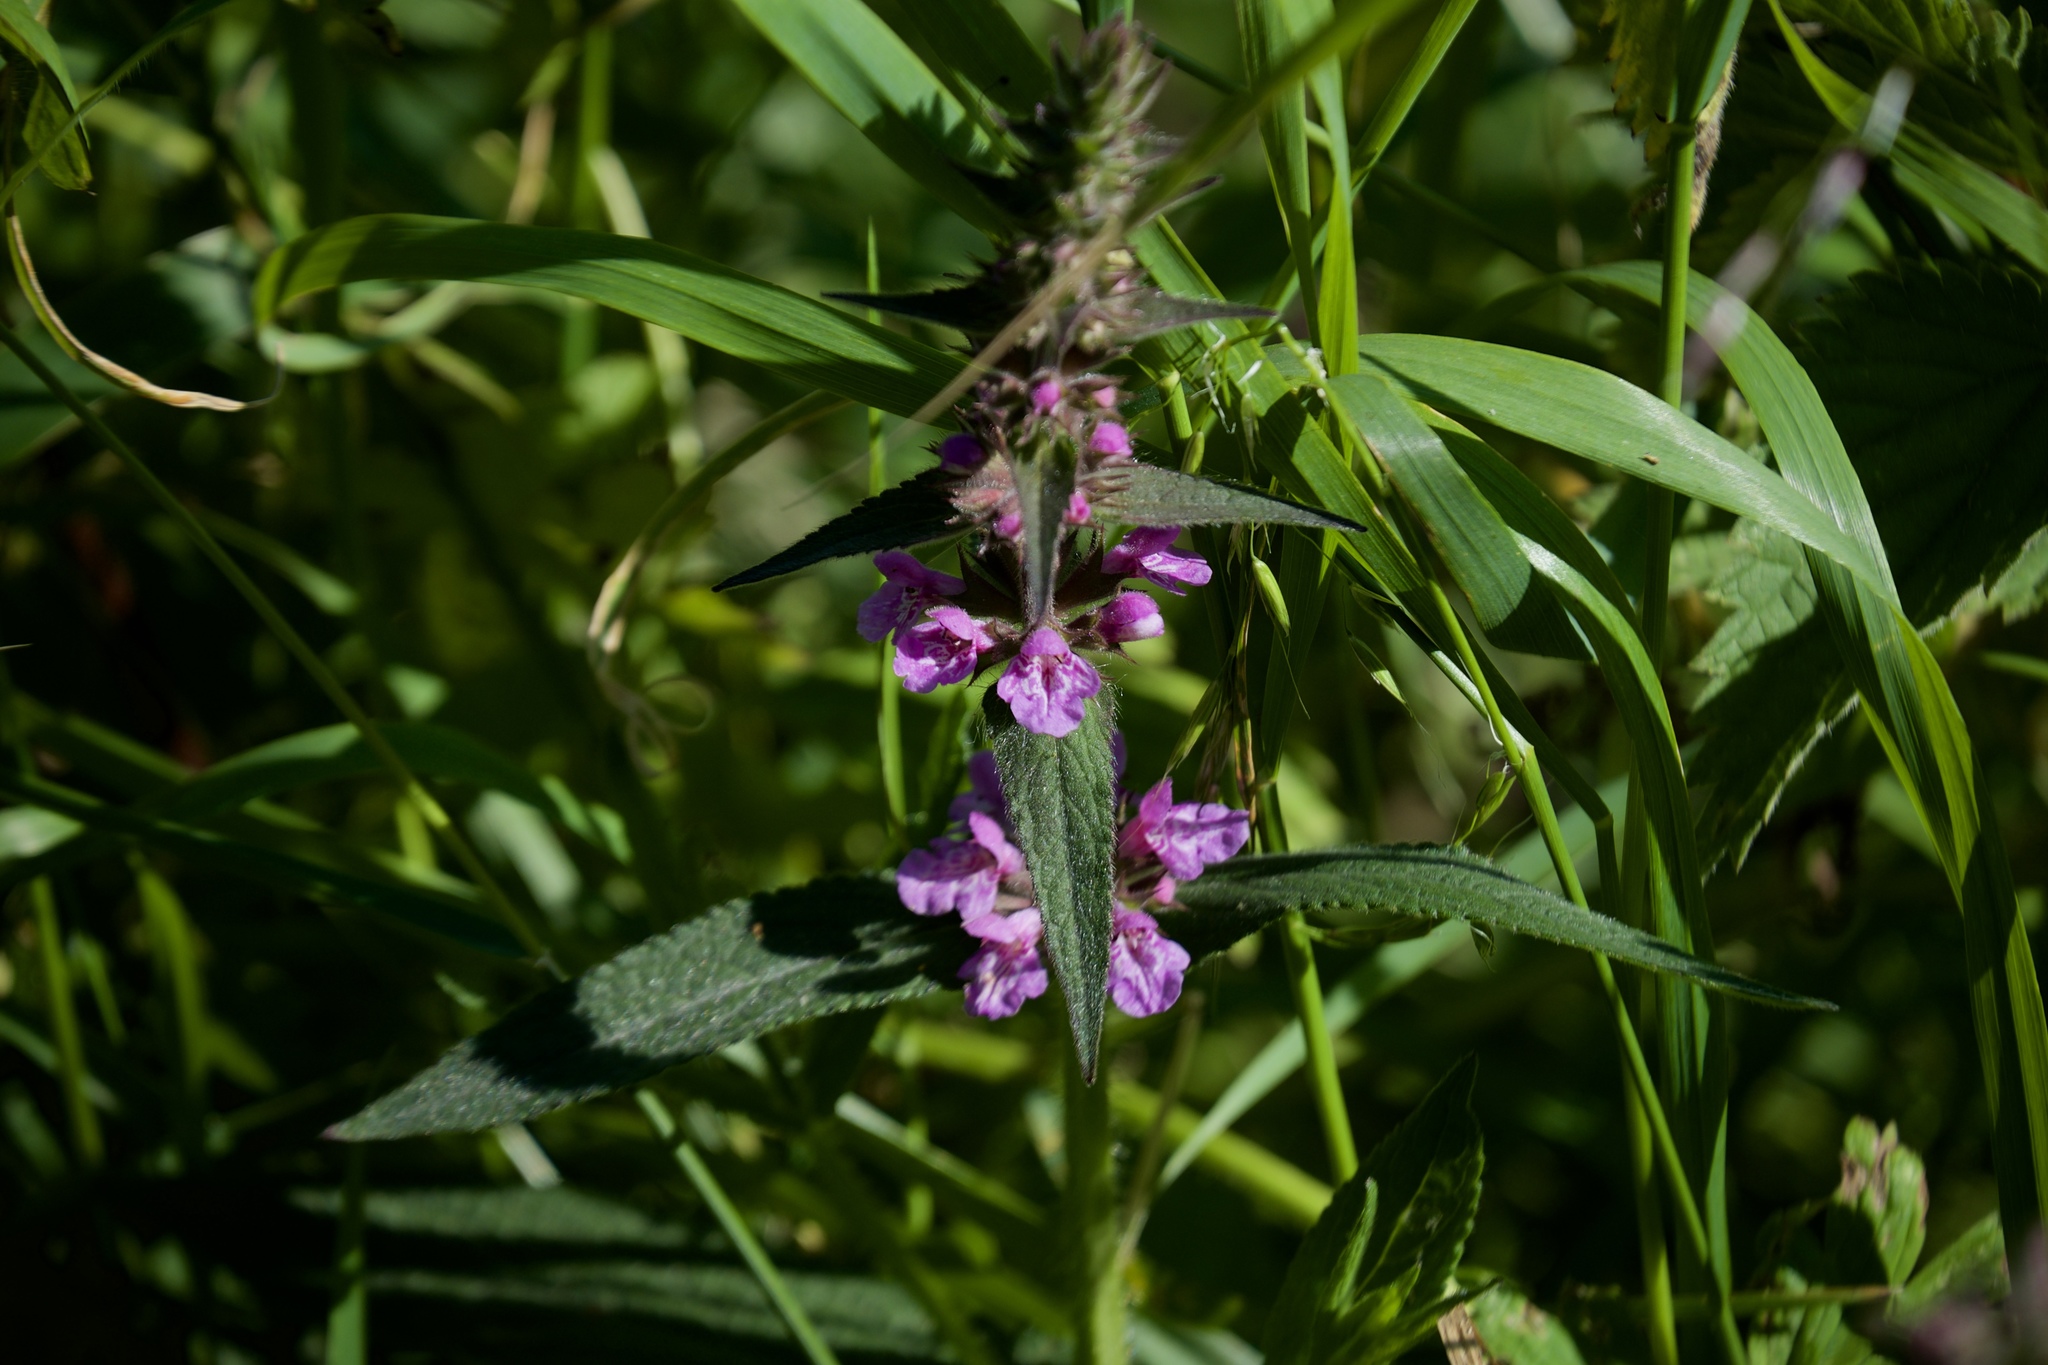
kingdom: Plantae
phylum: Tracheophyta
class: Magnoliopsida
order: Lamiales
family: Lamiaceae
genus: Stachys
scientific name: Stachys palustris
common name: Marsh woundwort
